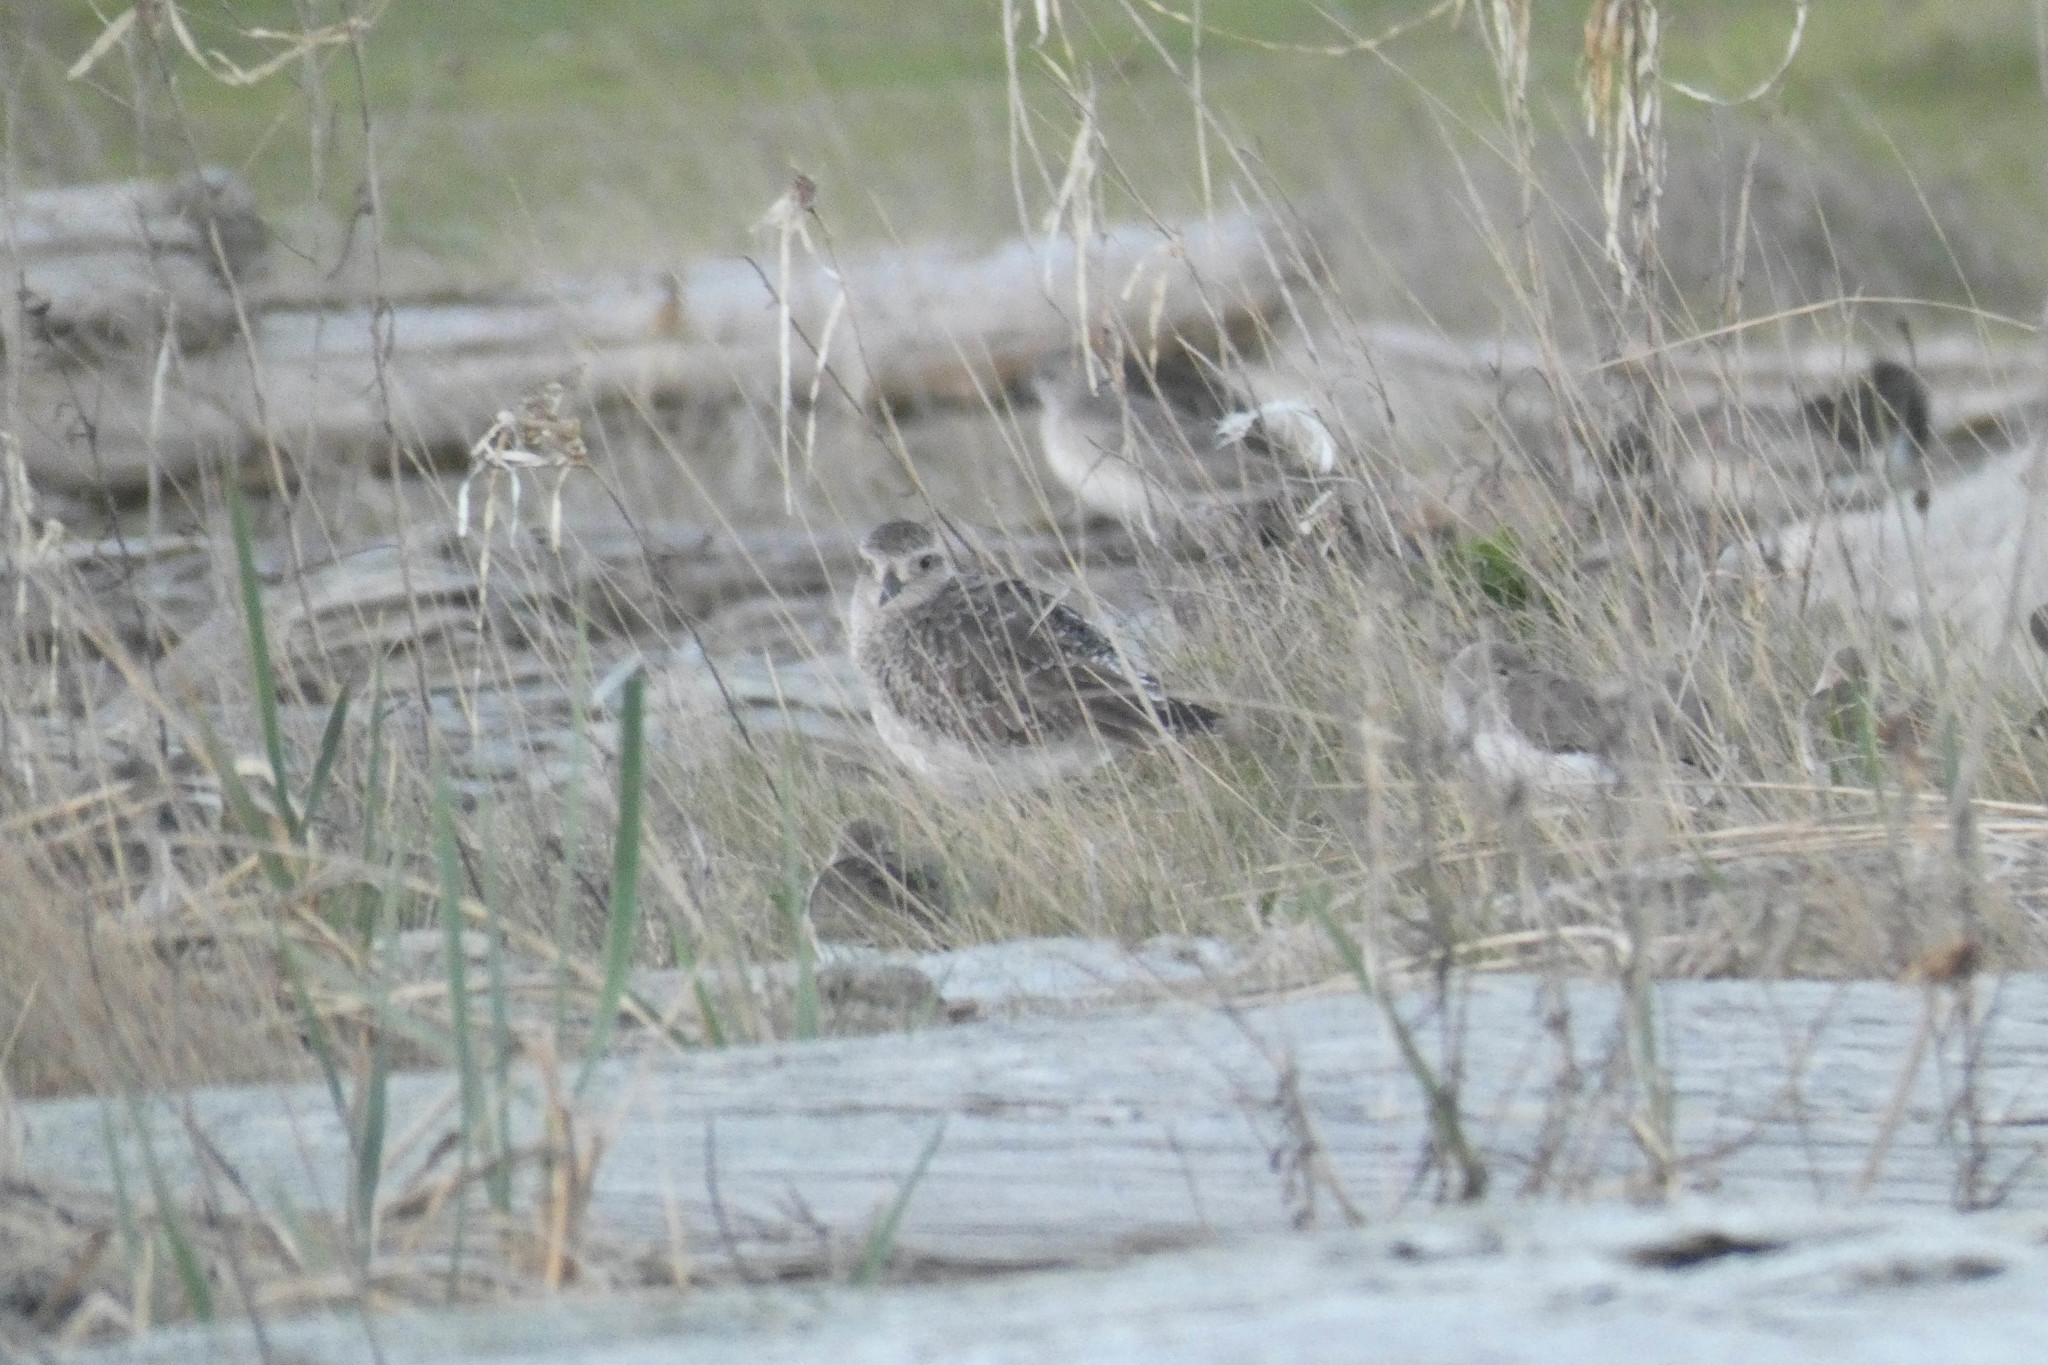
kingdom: Animalia
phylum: Chordata
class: Aves
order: Charadriiformes
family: Charadriidae
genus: Pluvialis
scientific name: Pluvialis squatarola
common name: Grey plover
